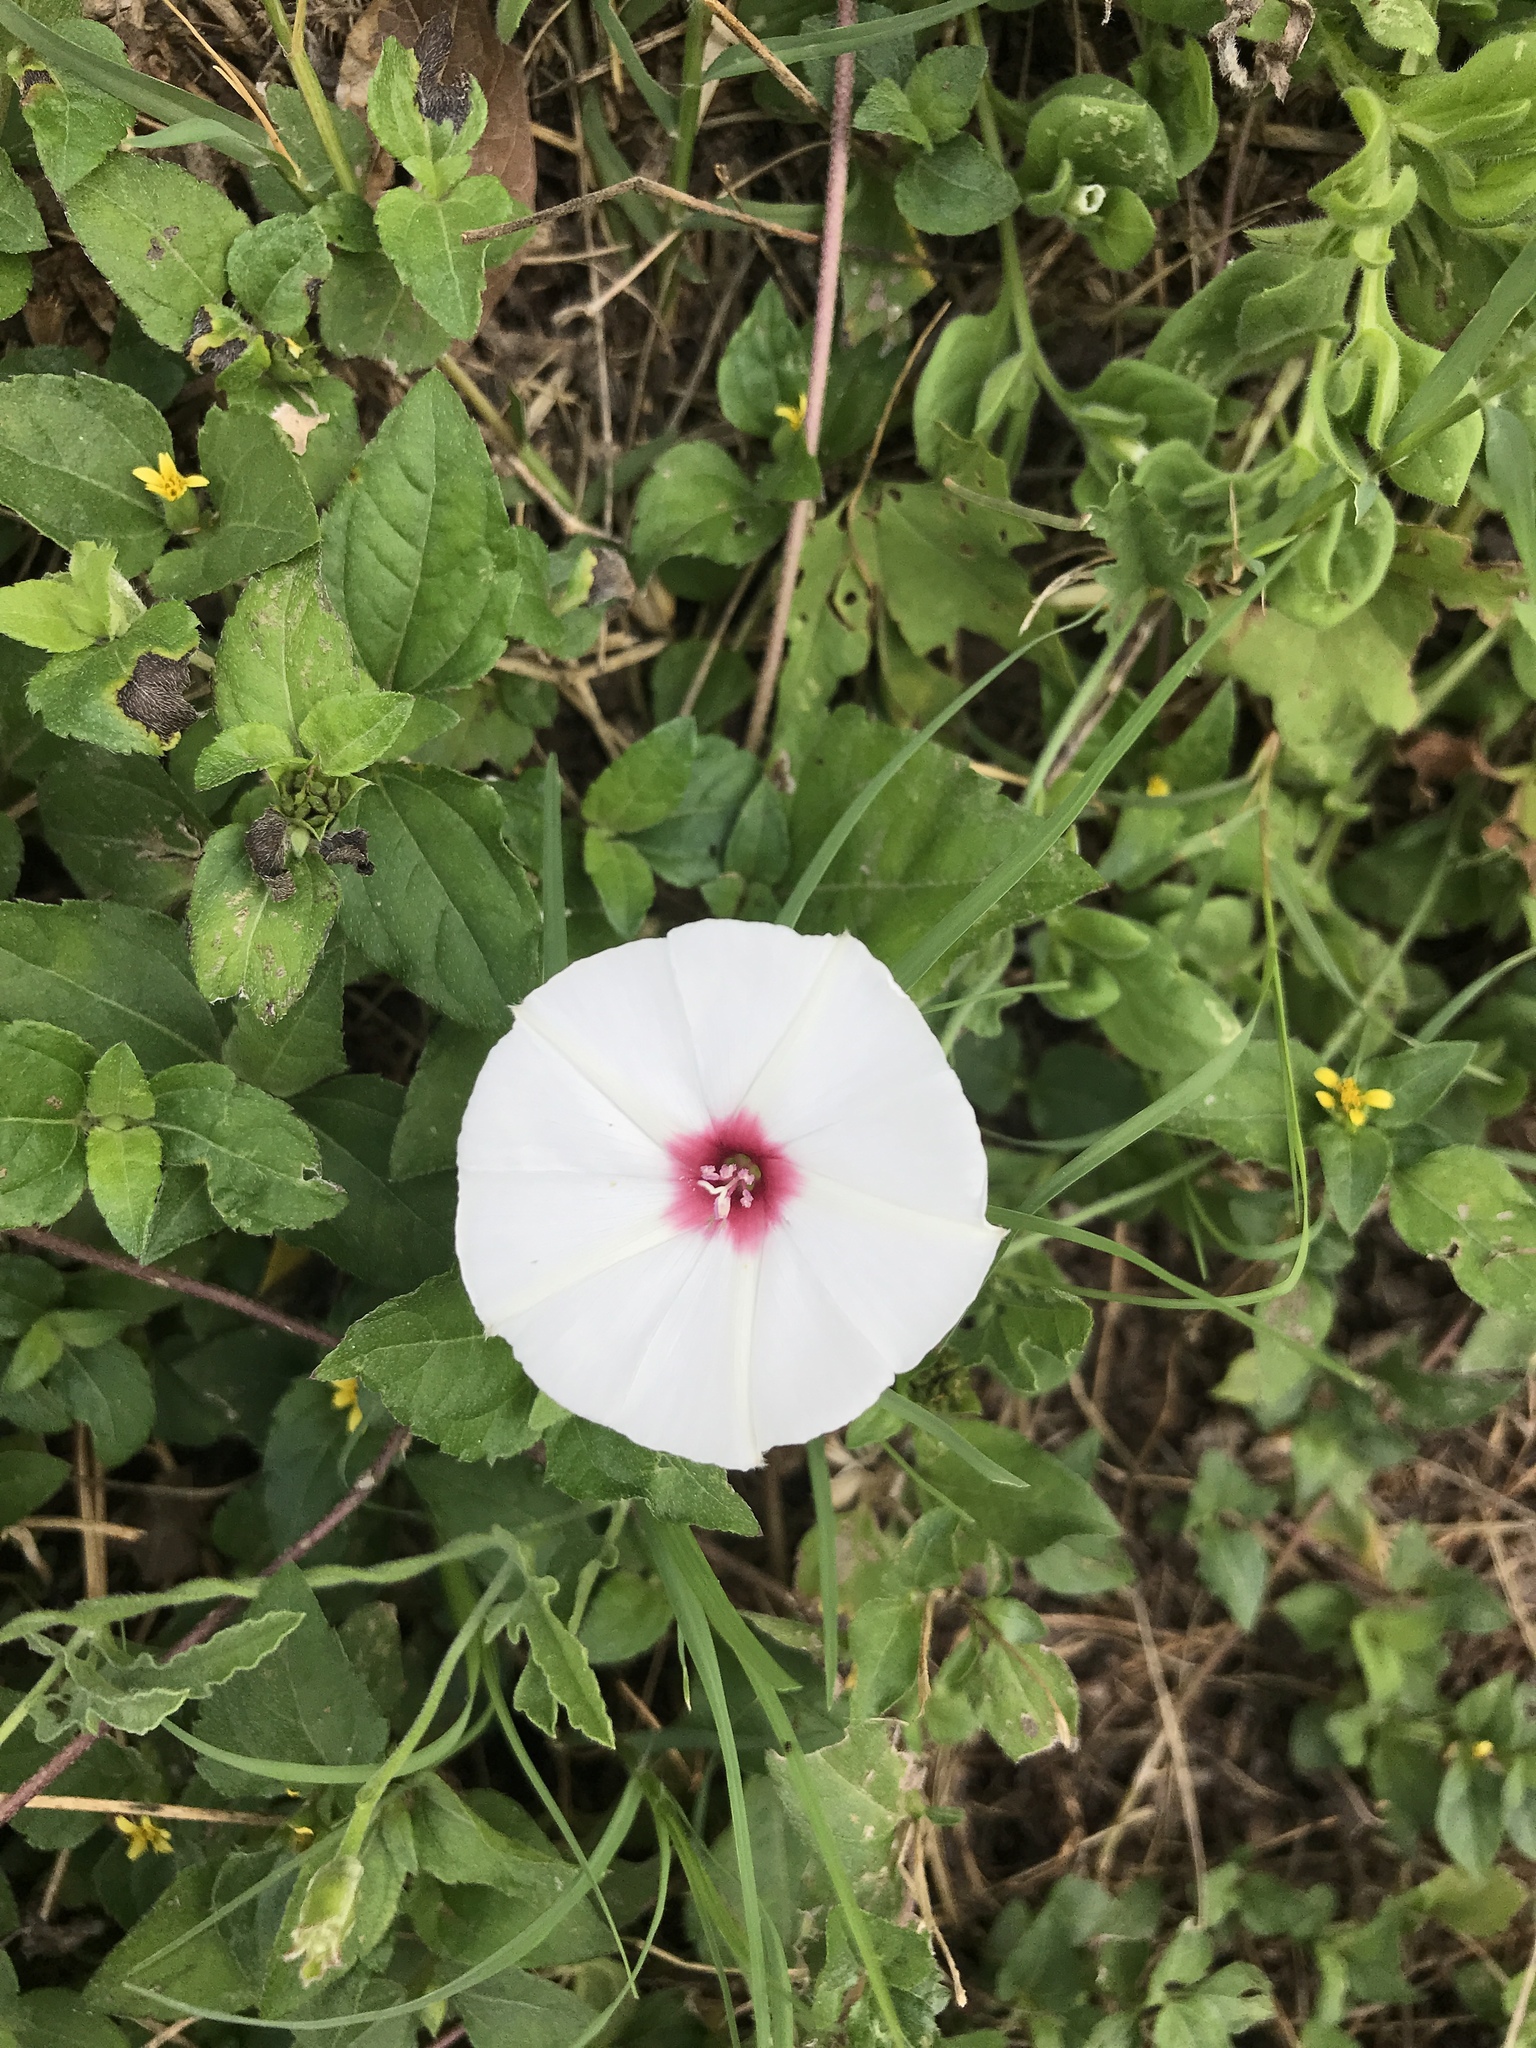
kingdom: Plantae
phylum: Tracheophyta
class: Magnoliopsida
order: Solanales
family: Convolvulaceae
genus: Convolvulus
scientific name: Convolvulus equitans
